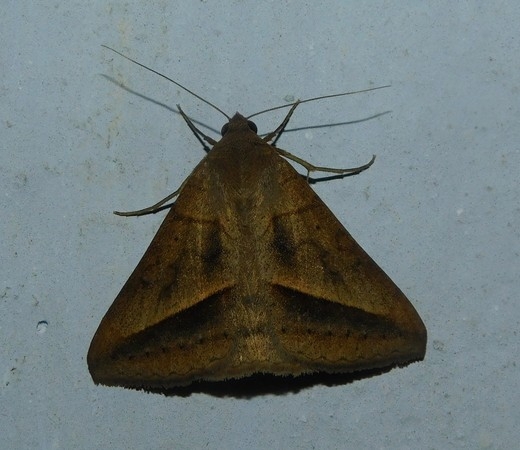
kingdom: Animalia
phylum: Arthropoda
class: Insecta
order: Lepidoptera
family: Erebidae
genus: Mocis
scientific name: Mocis frugalis
